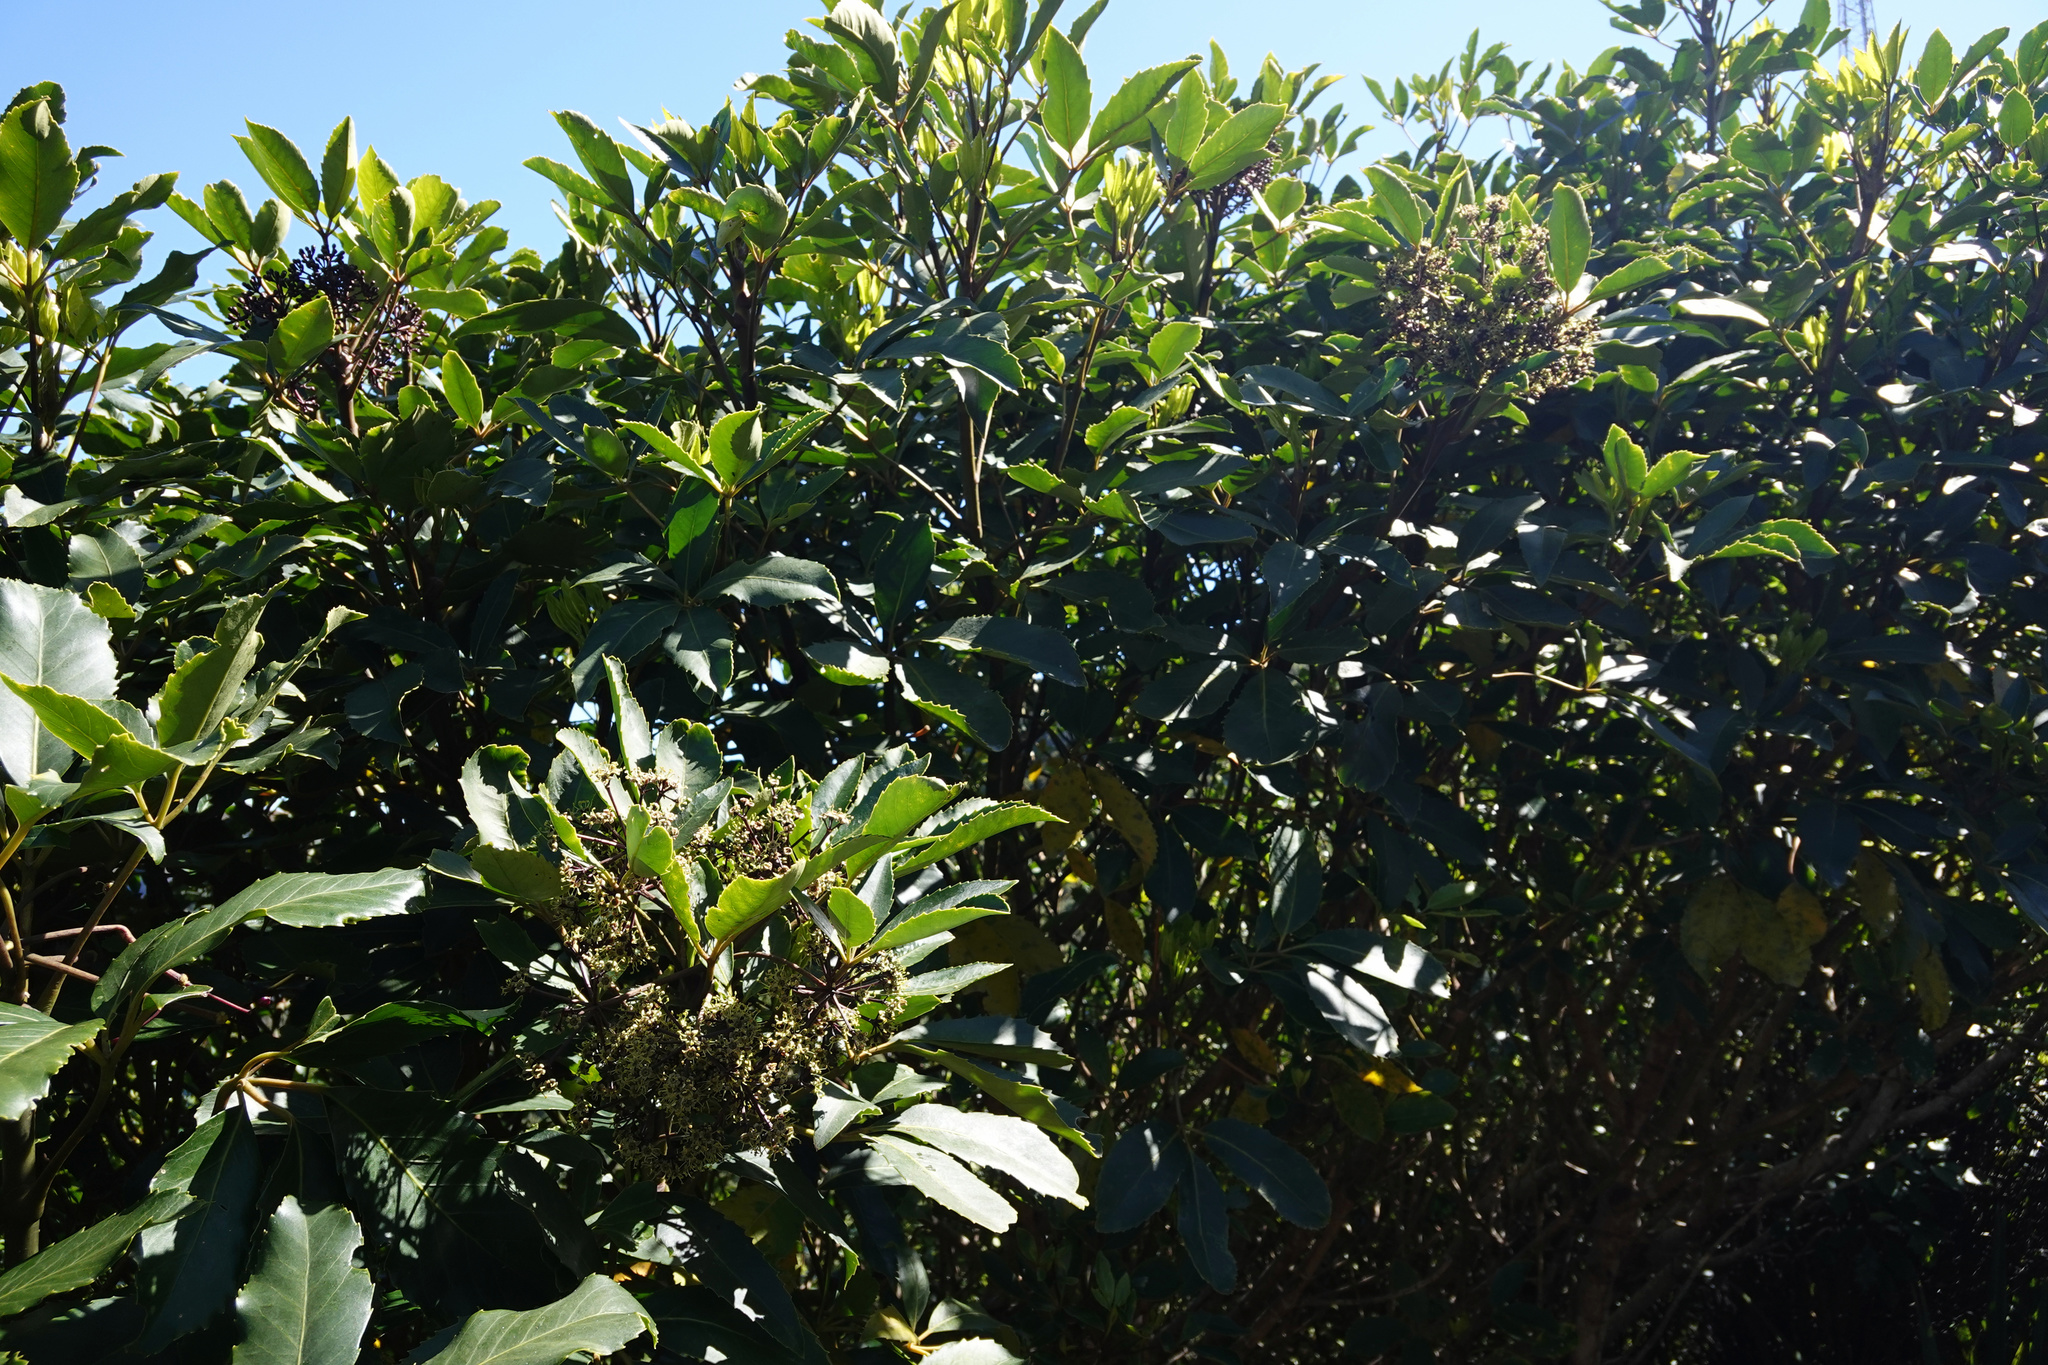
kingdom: Plantae
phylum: Tracheophyta
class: Magnoliopsida
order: Apiales
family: Araliaceae
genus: Neopanax
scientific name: Neopanax arboreus
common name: Five-fingers
